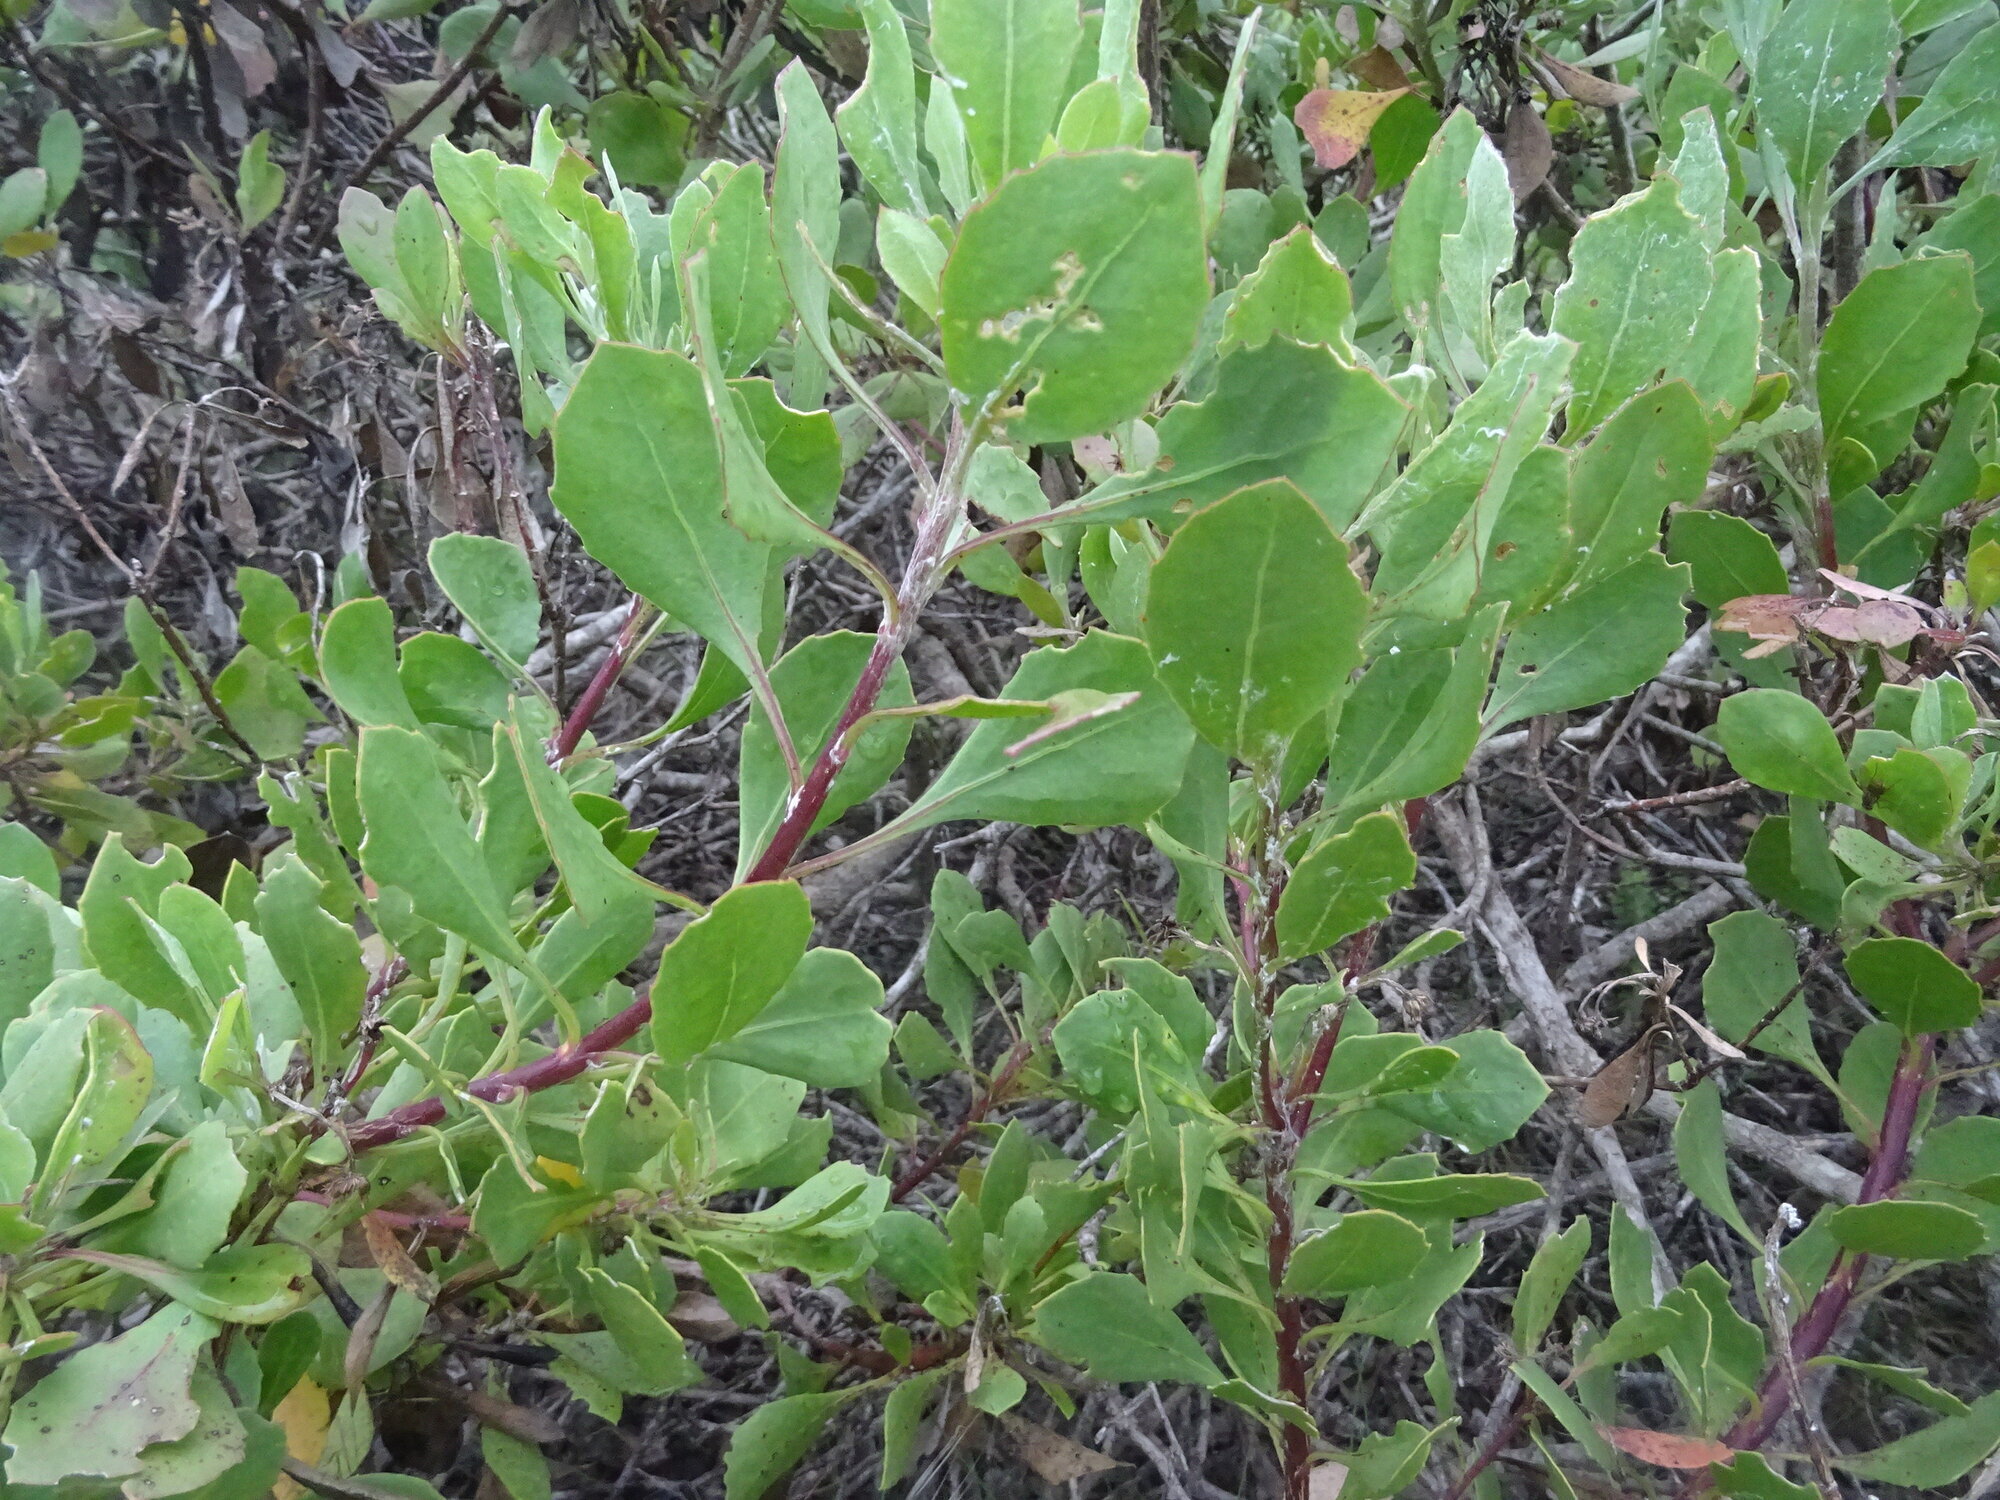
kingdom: Plantae
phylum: Tracheophyta
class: Magnoliopsida
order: Asterales
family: Asteraceae
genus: Osteospermum
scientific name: Osteospermum moniliferum
